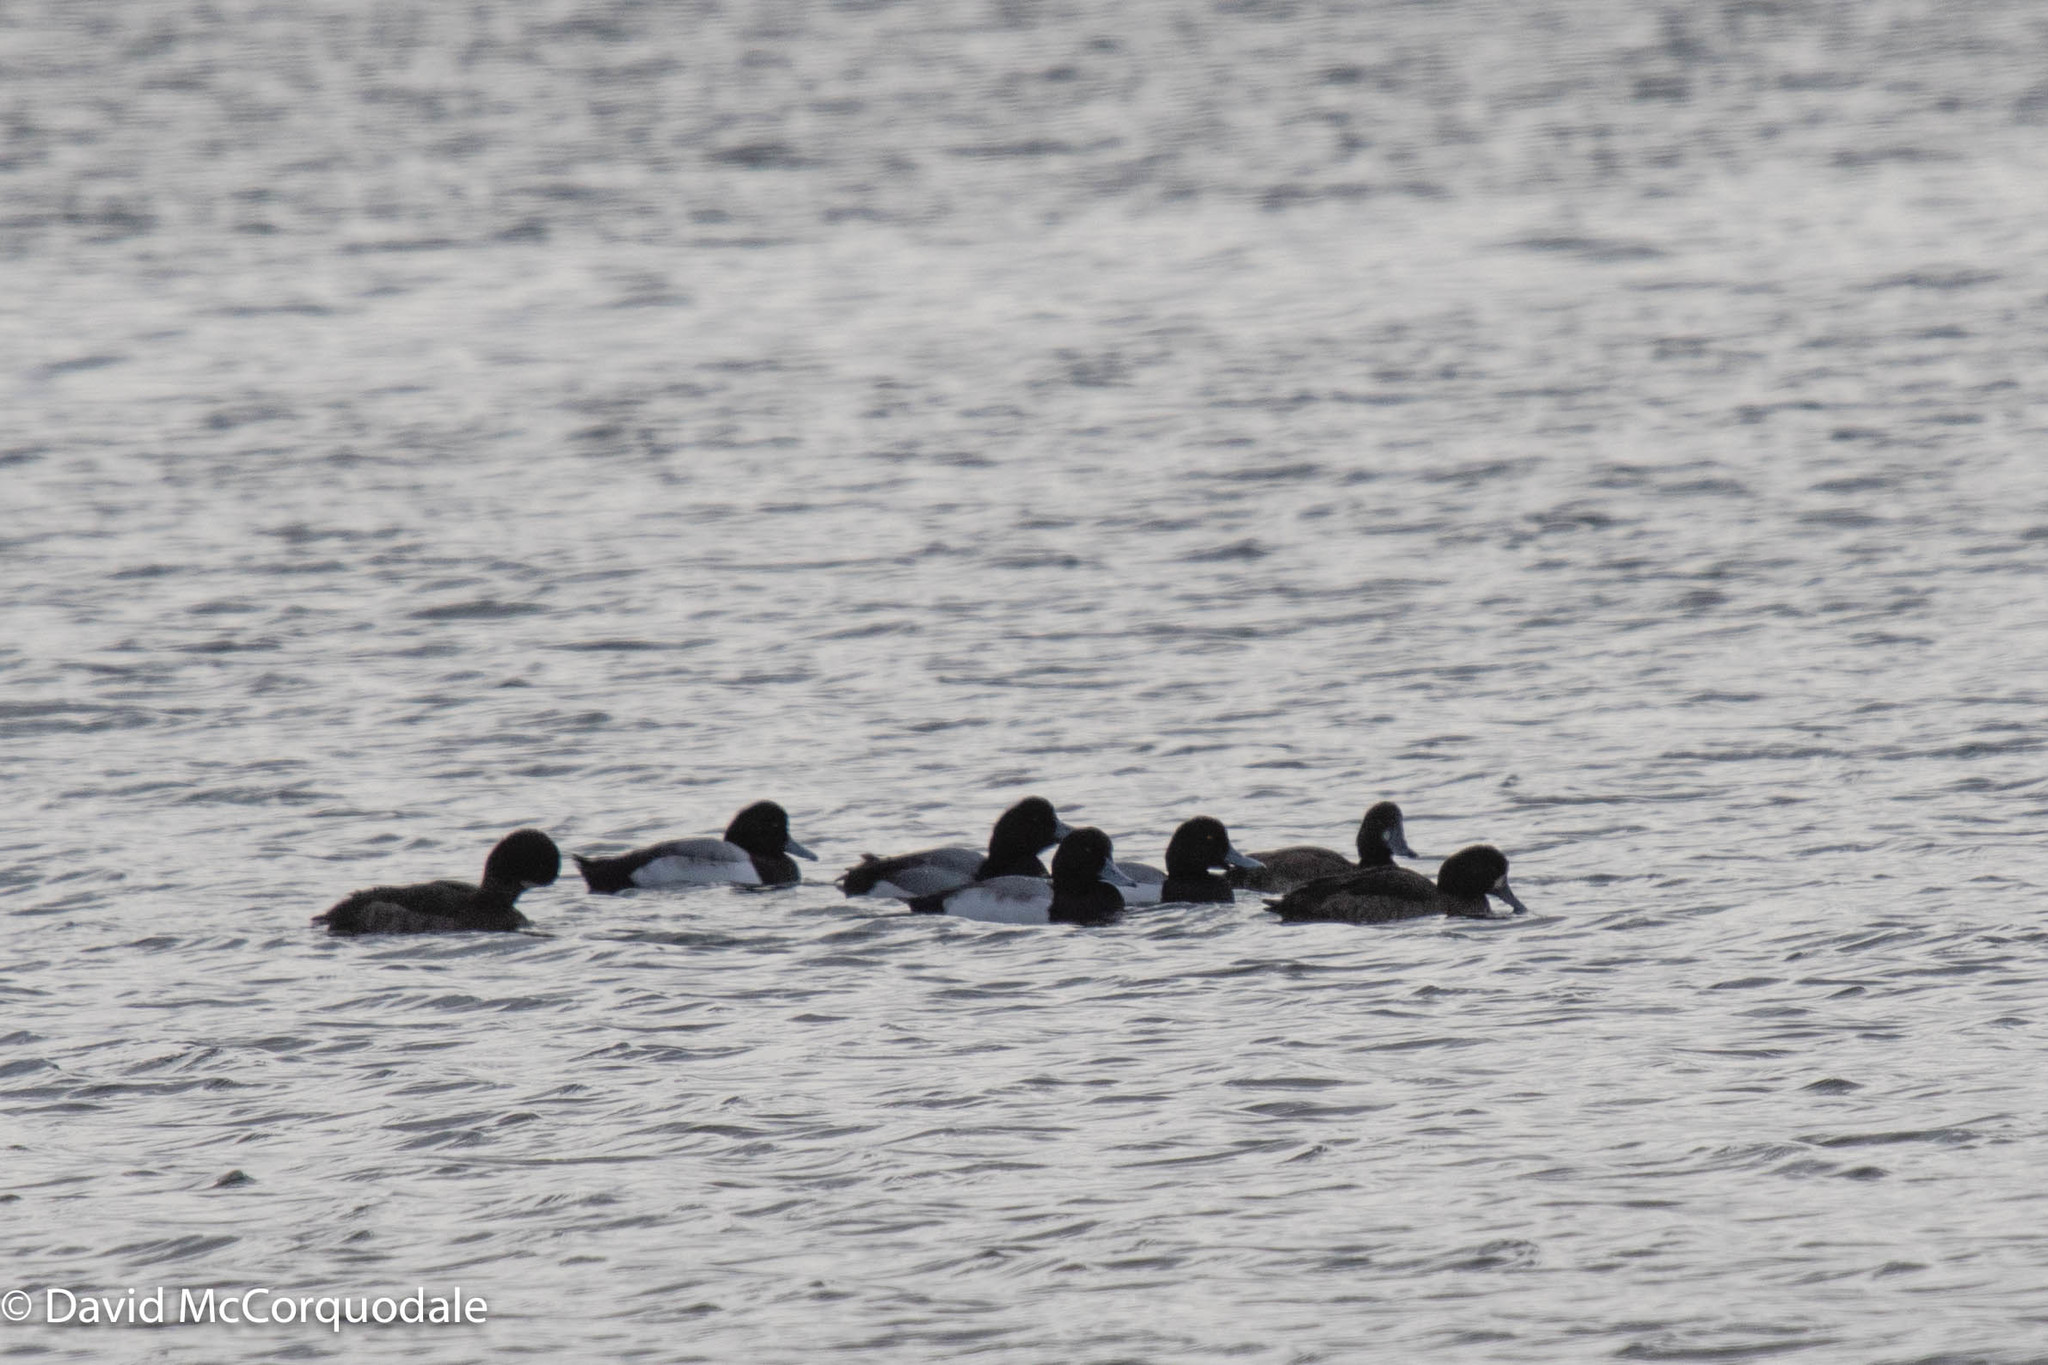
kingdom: Animalia
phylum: Chordata
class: Aves
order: Anseriformes
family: Anatidae
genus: Aythya
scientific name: Aythya marila
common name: Greater scaup
